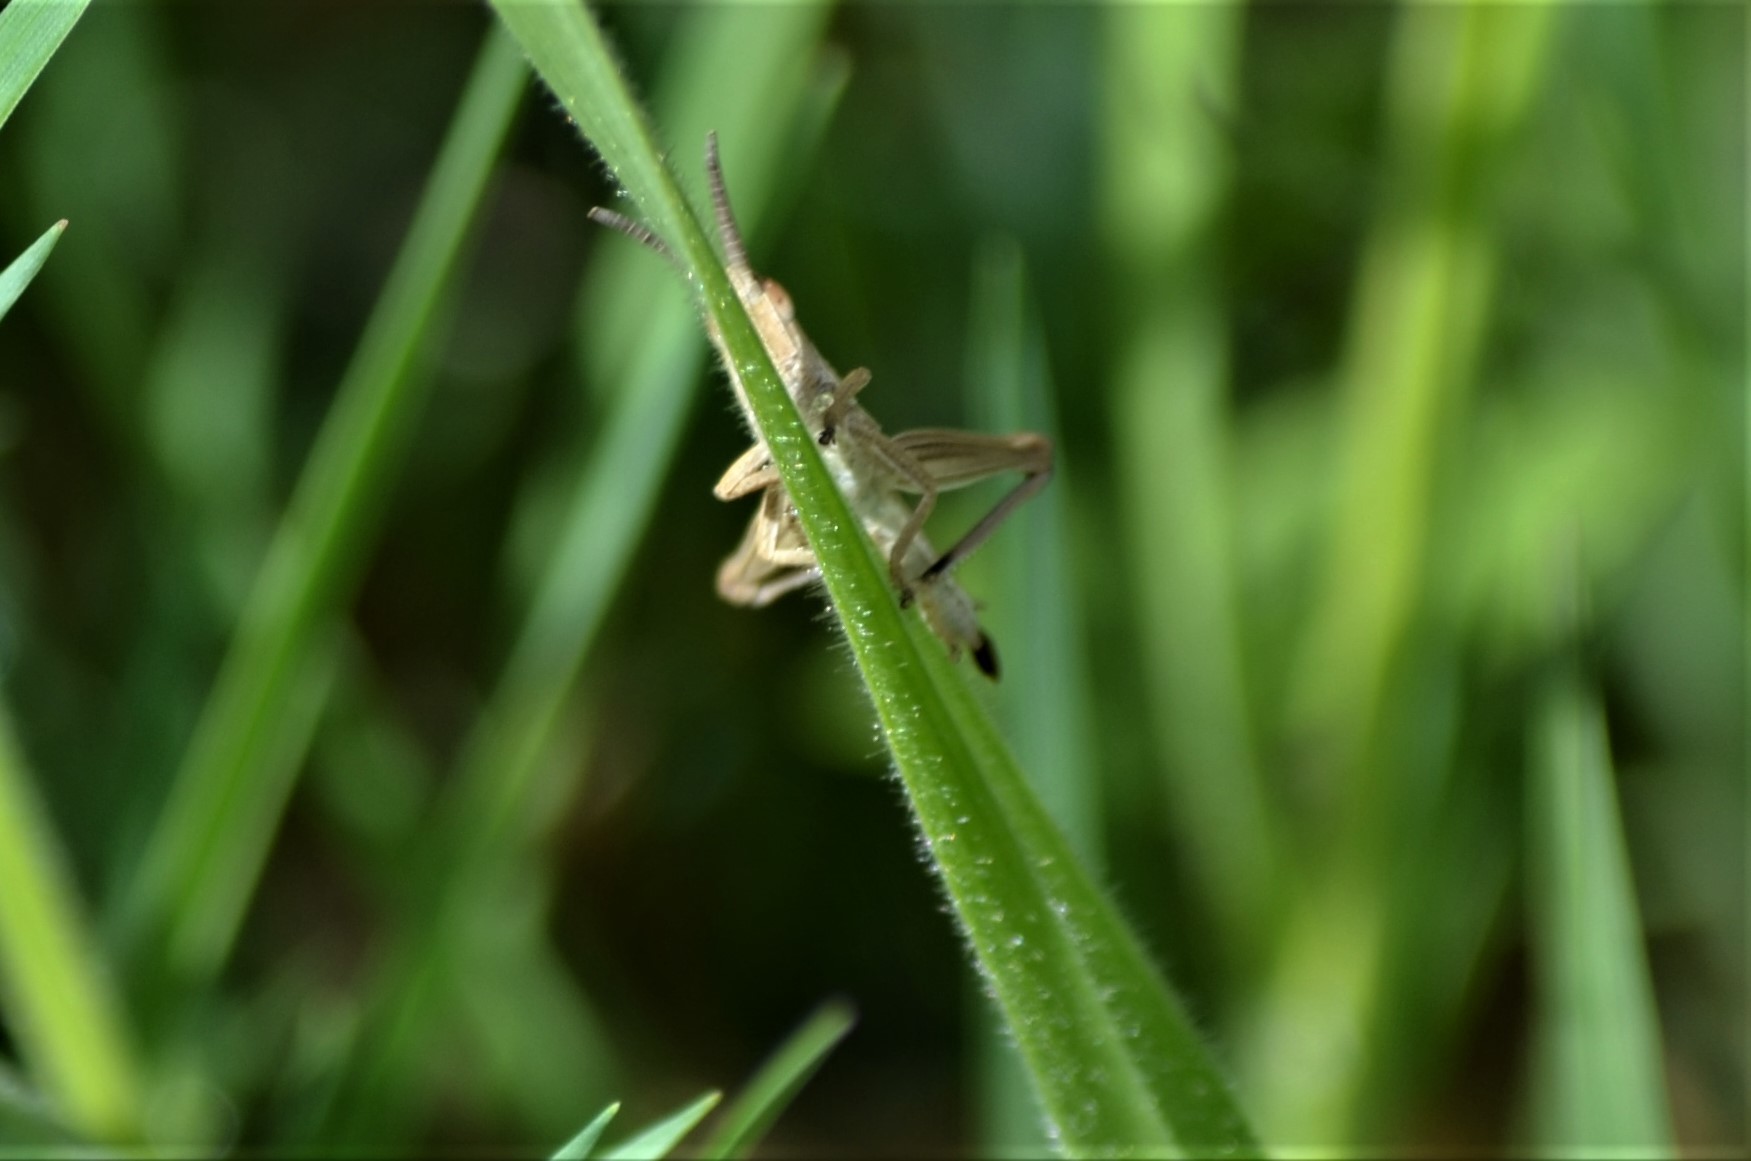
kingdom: Animalia
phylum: Arthropoda
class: Insecta
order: Orthoptera
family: Acrididae
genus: Euthystira
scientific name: Euthystira brachyptera
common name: Small gold grasshopper
